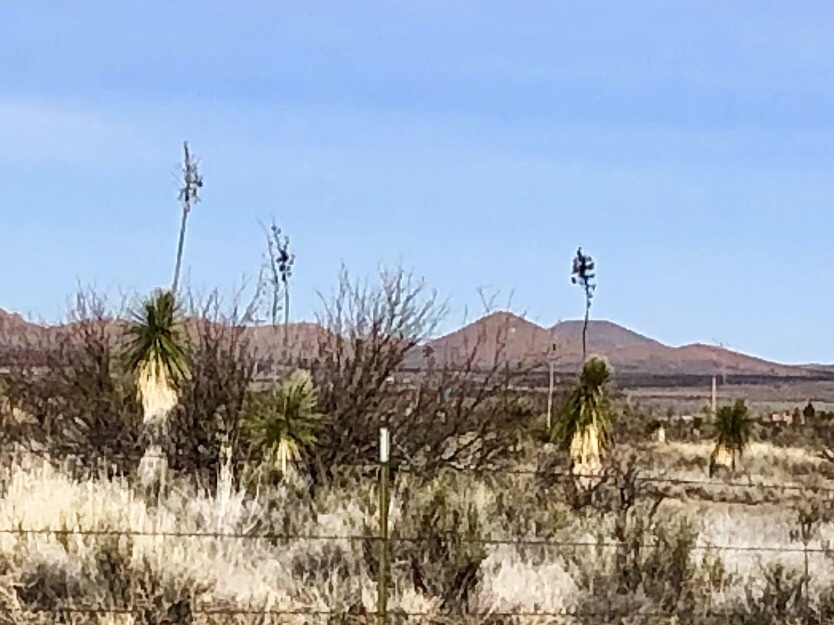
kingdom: Plantae
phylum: Tracheophyta
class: Liliopsida
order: Asparagales
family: Asparagaceae
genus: Yucca
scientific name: Yucca elata
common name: Palmella
